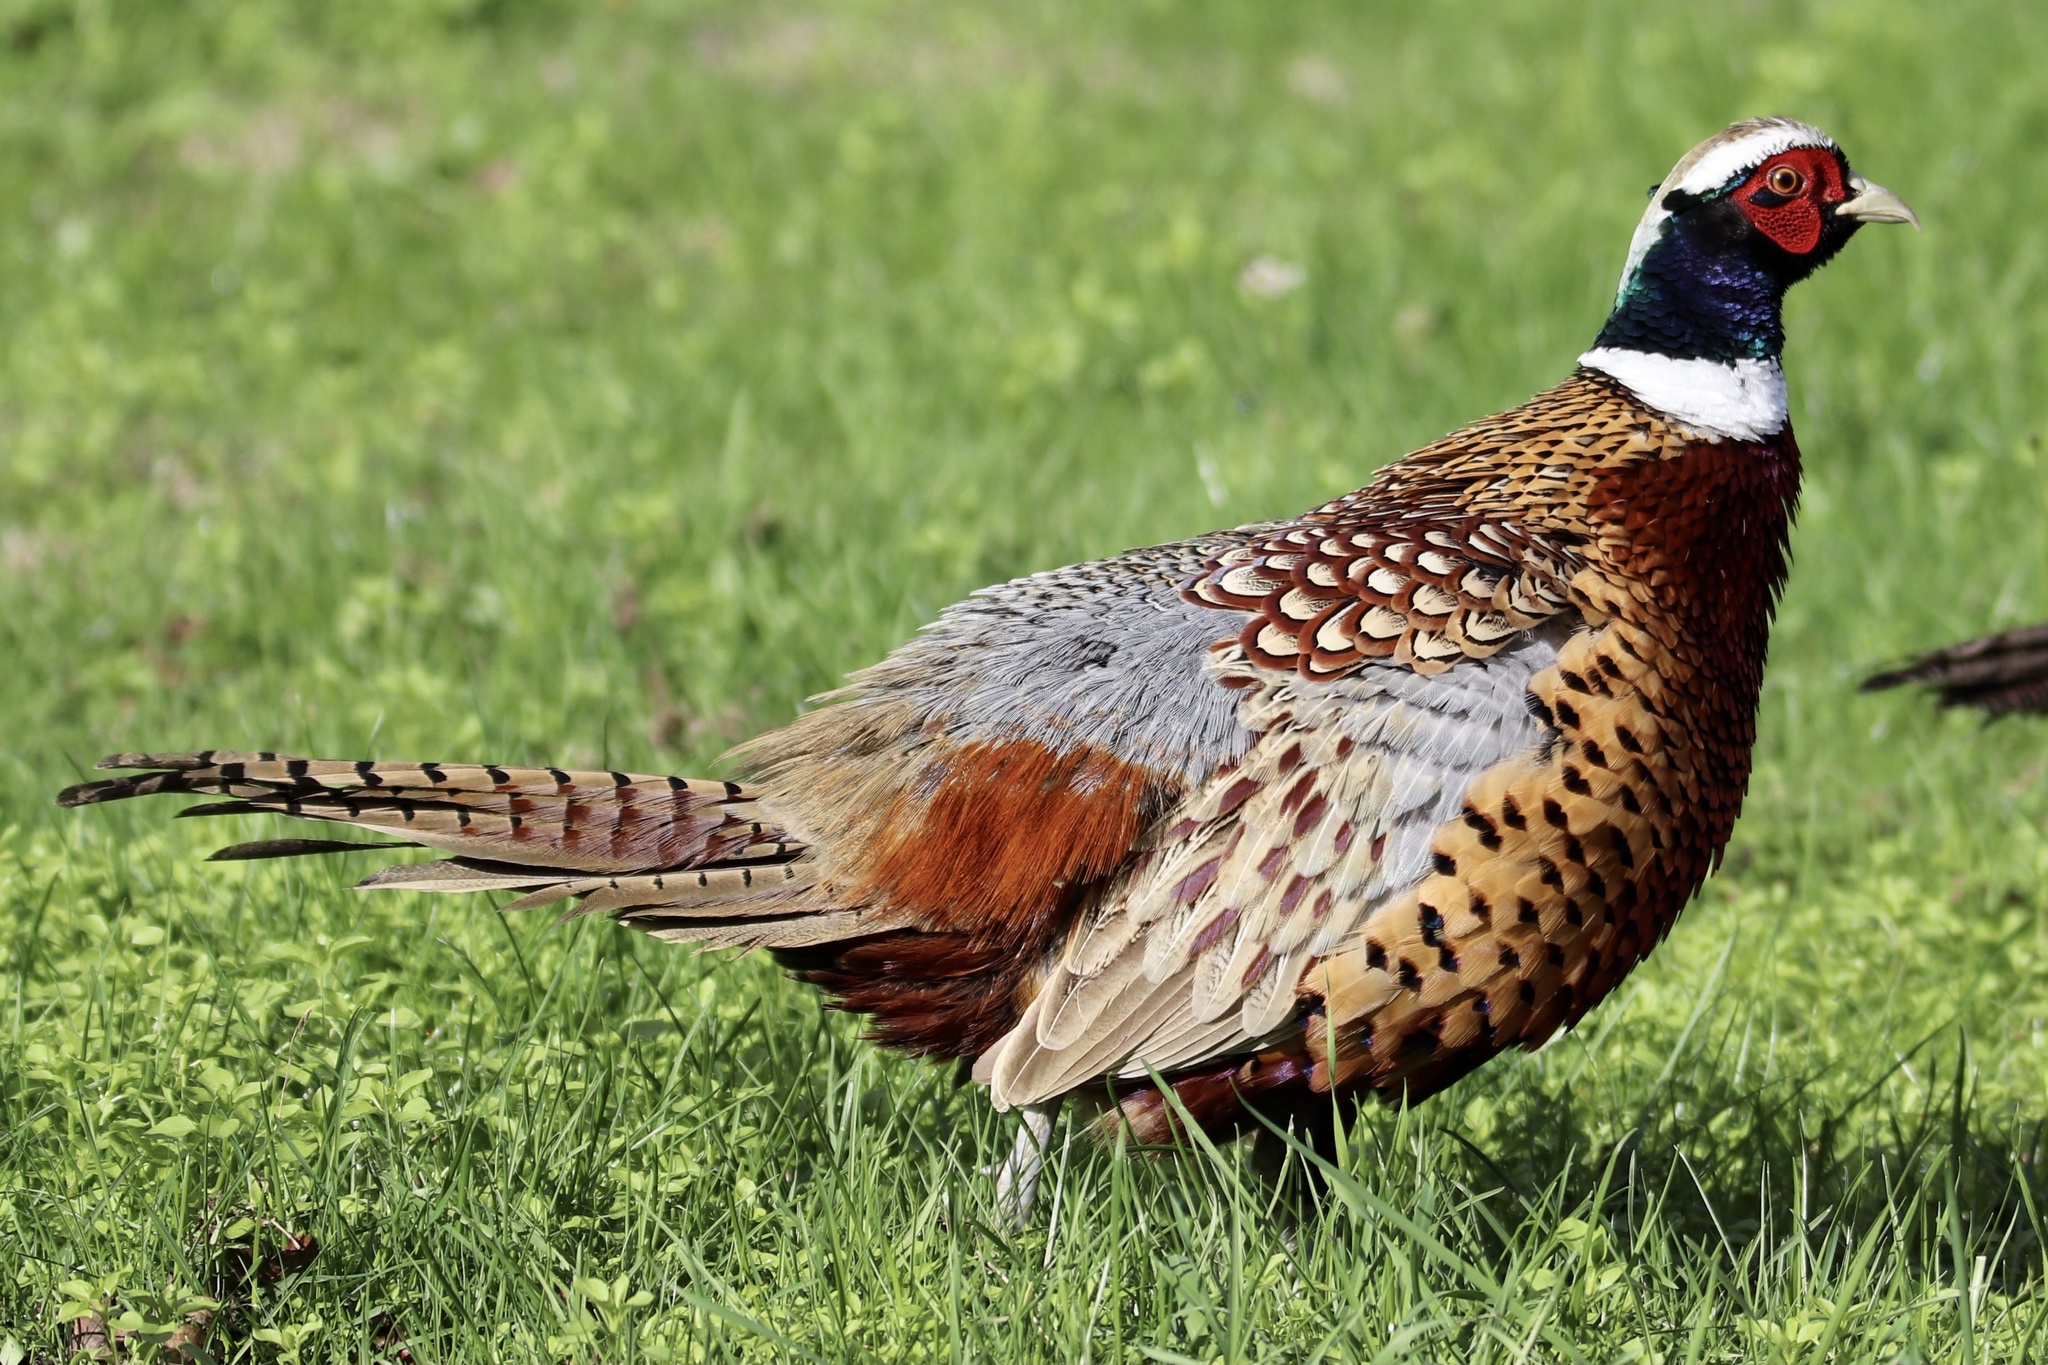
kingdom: Animalia
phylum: Chordata
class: Aves
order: Galliformes
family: Phasianidae
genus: Phasianus
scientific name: Phasianus colchicus
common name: Common pheasant
